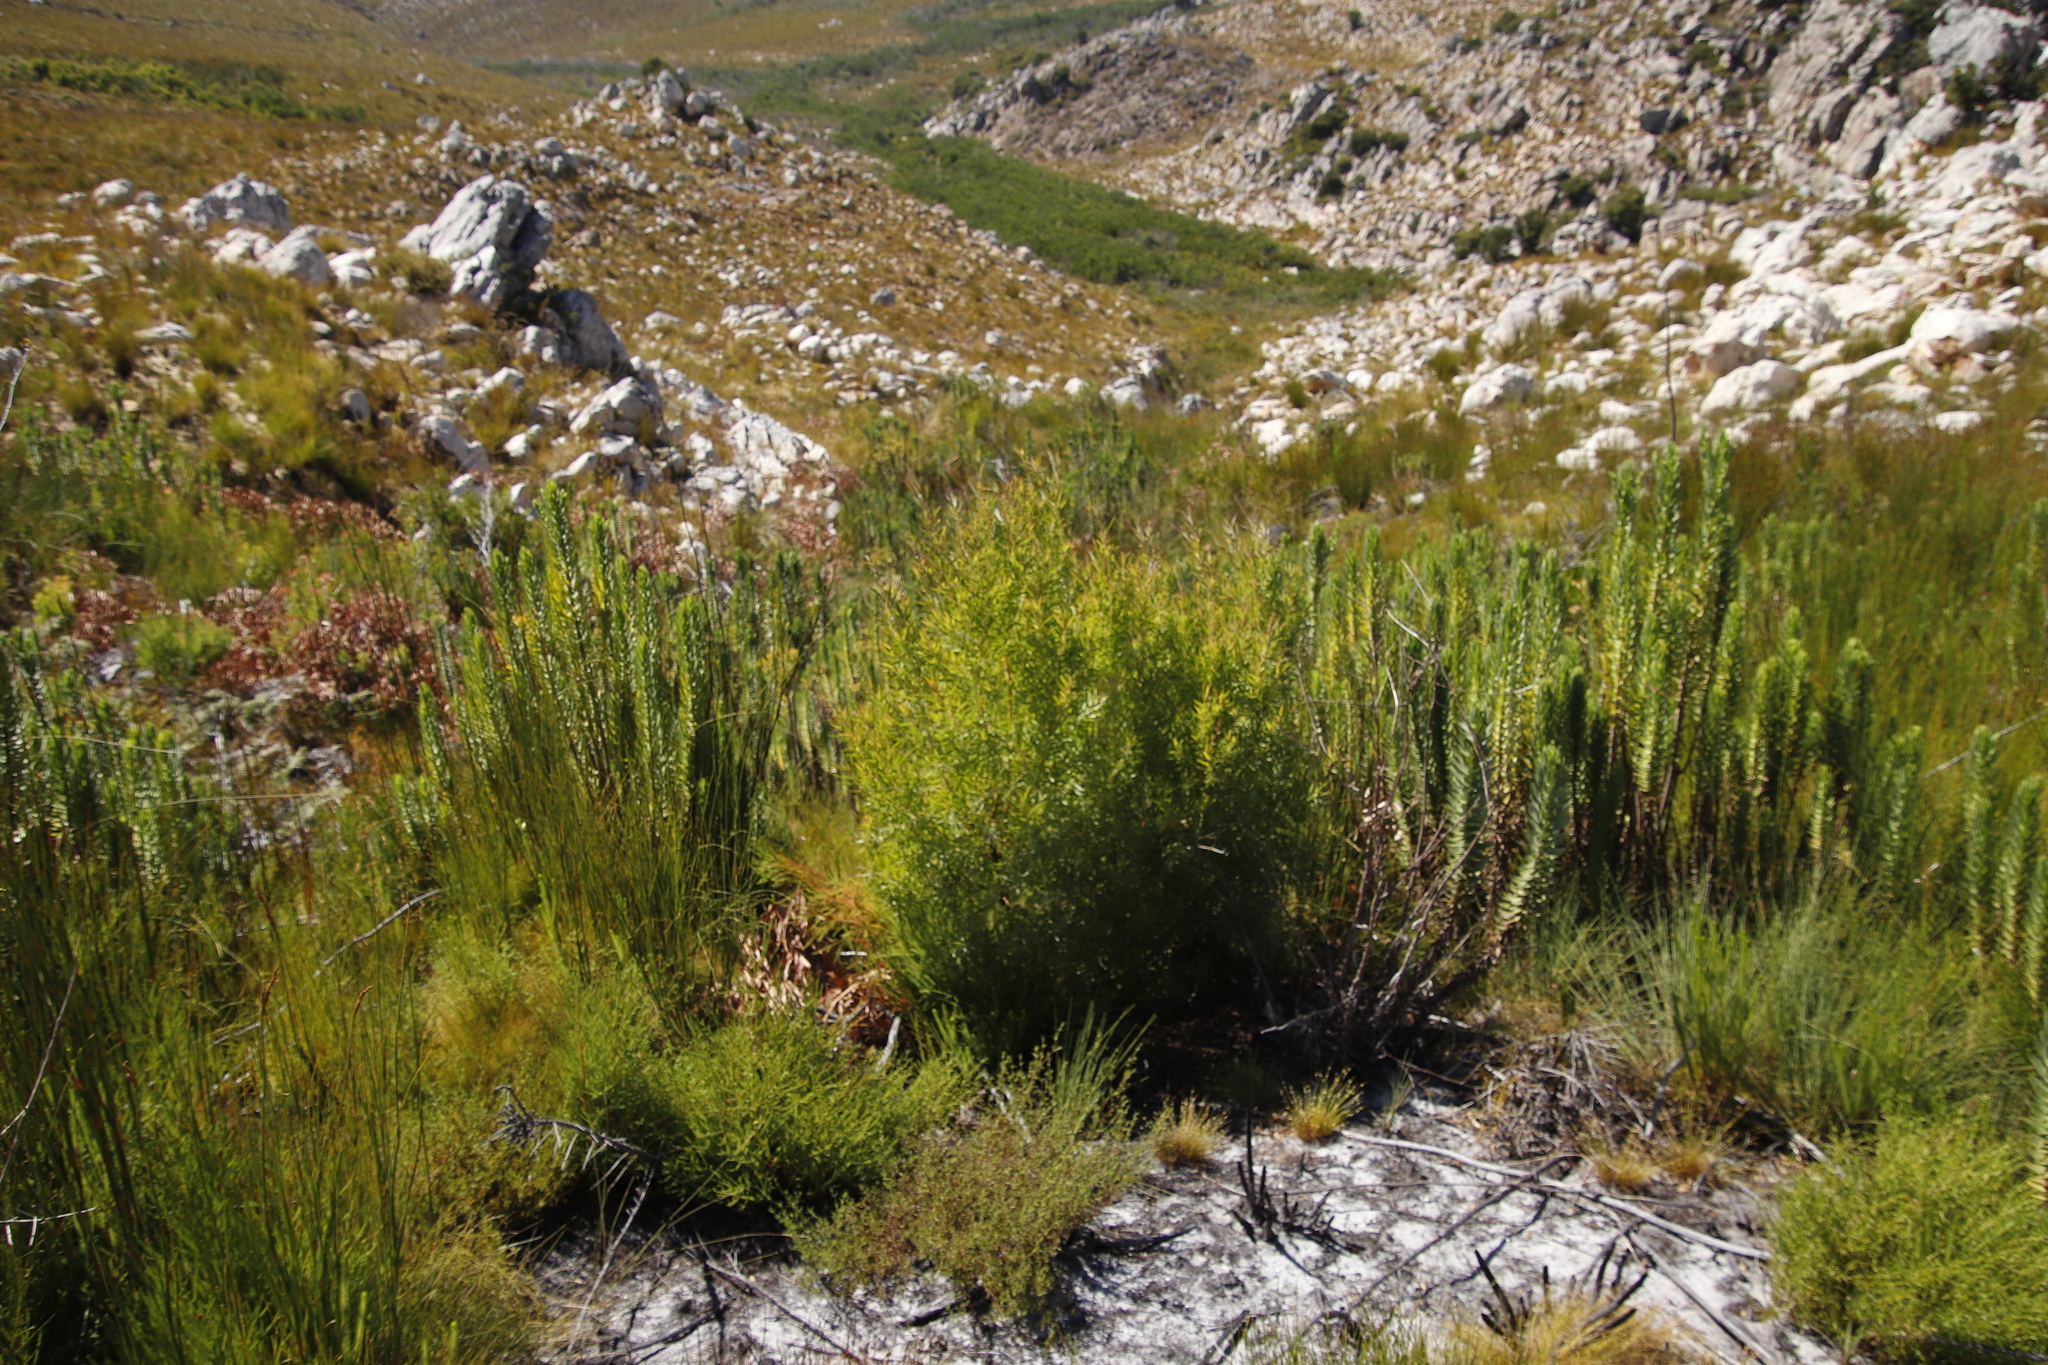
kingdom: Plantae
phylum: Tracheophyta
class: Magnoliopsida
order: Proteales
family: Proteaceae
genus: Leucadendron
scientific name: Leucadendron salicifolium
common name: Common stream conebush
